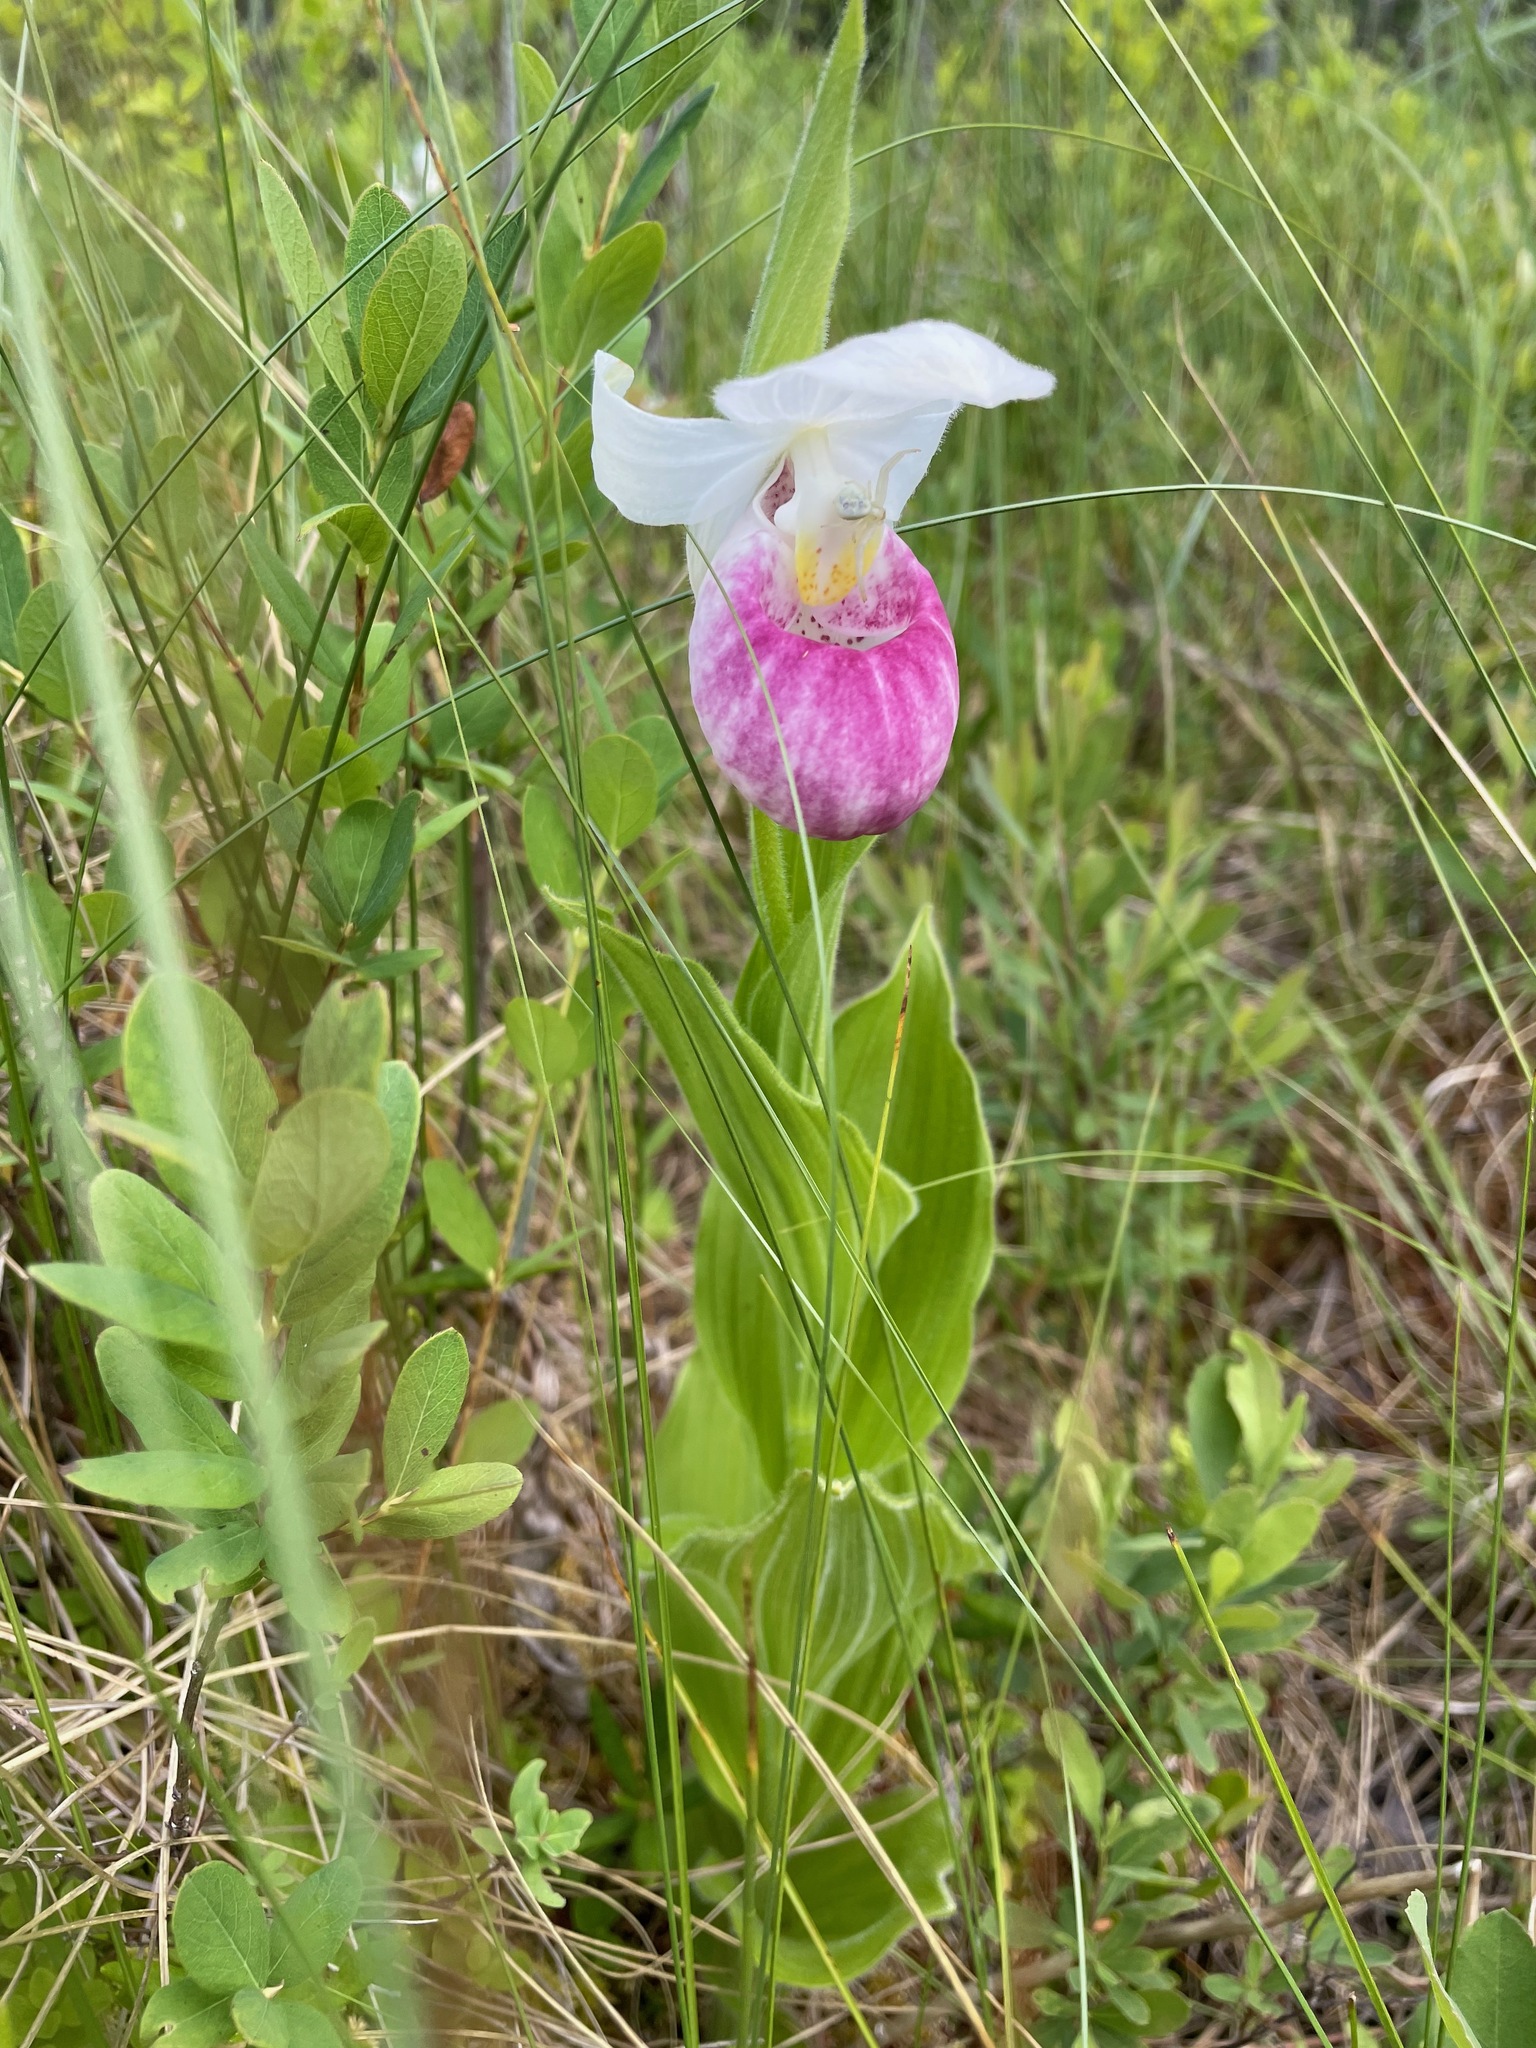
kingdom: Plantae
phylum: Tracheophyta
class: Liliopsida
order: Asparagales
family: Orchidaceae
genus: Cypripedium
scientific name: Cypripedium reginae
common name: Queen lady's-slipper
